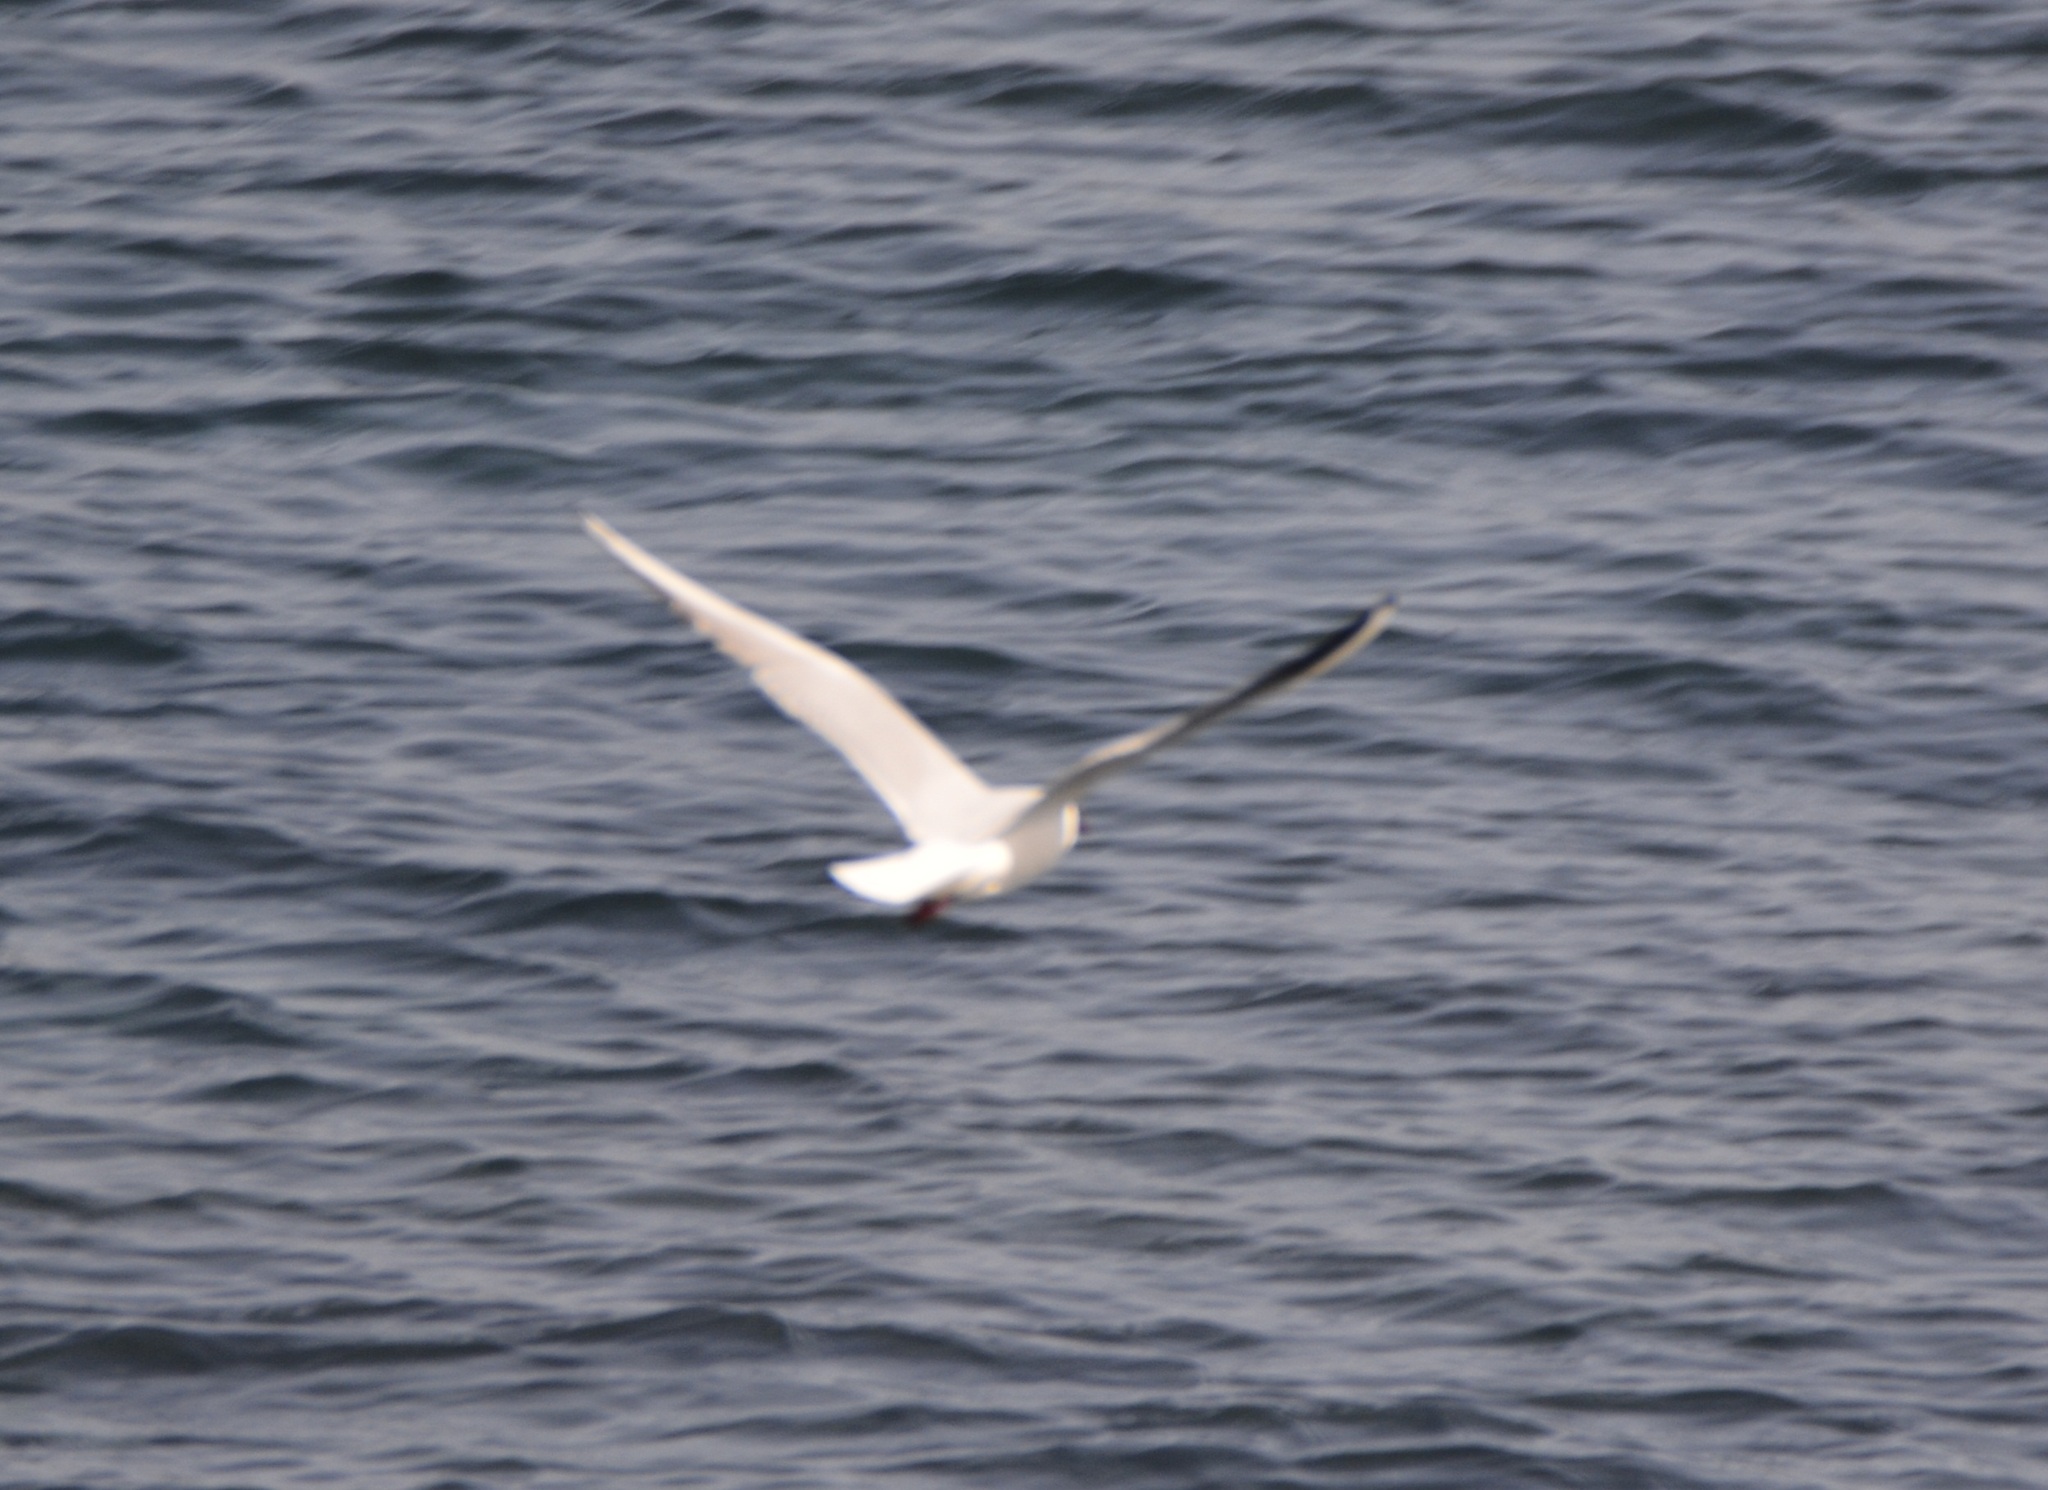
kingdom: Animalia
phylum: Chordata
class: Aves
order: Charadriiformes
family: Laridae
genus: Chroicocephalus
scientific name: Chroicocephalus ridibundus
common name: Black-headed gull
